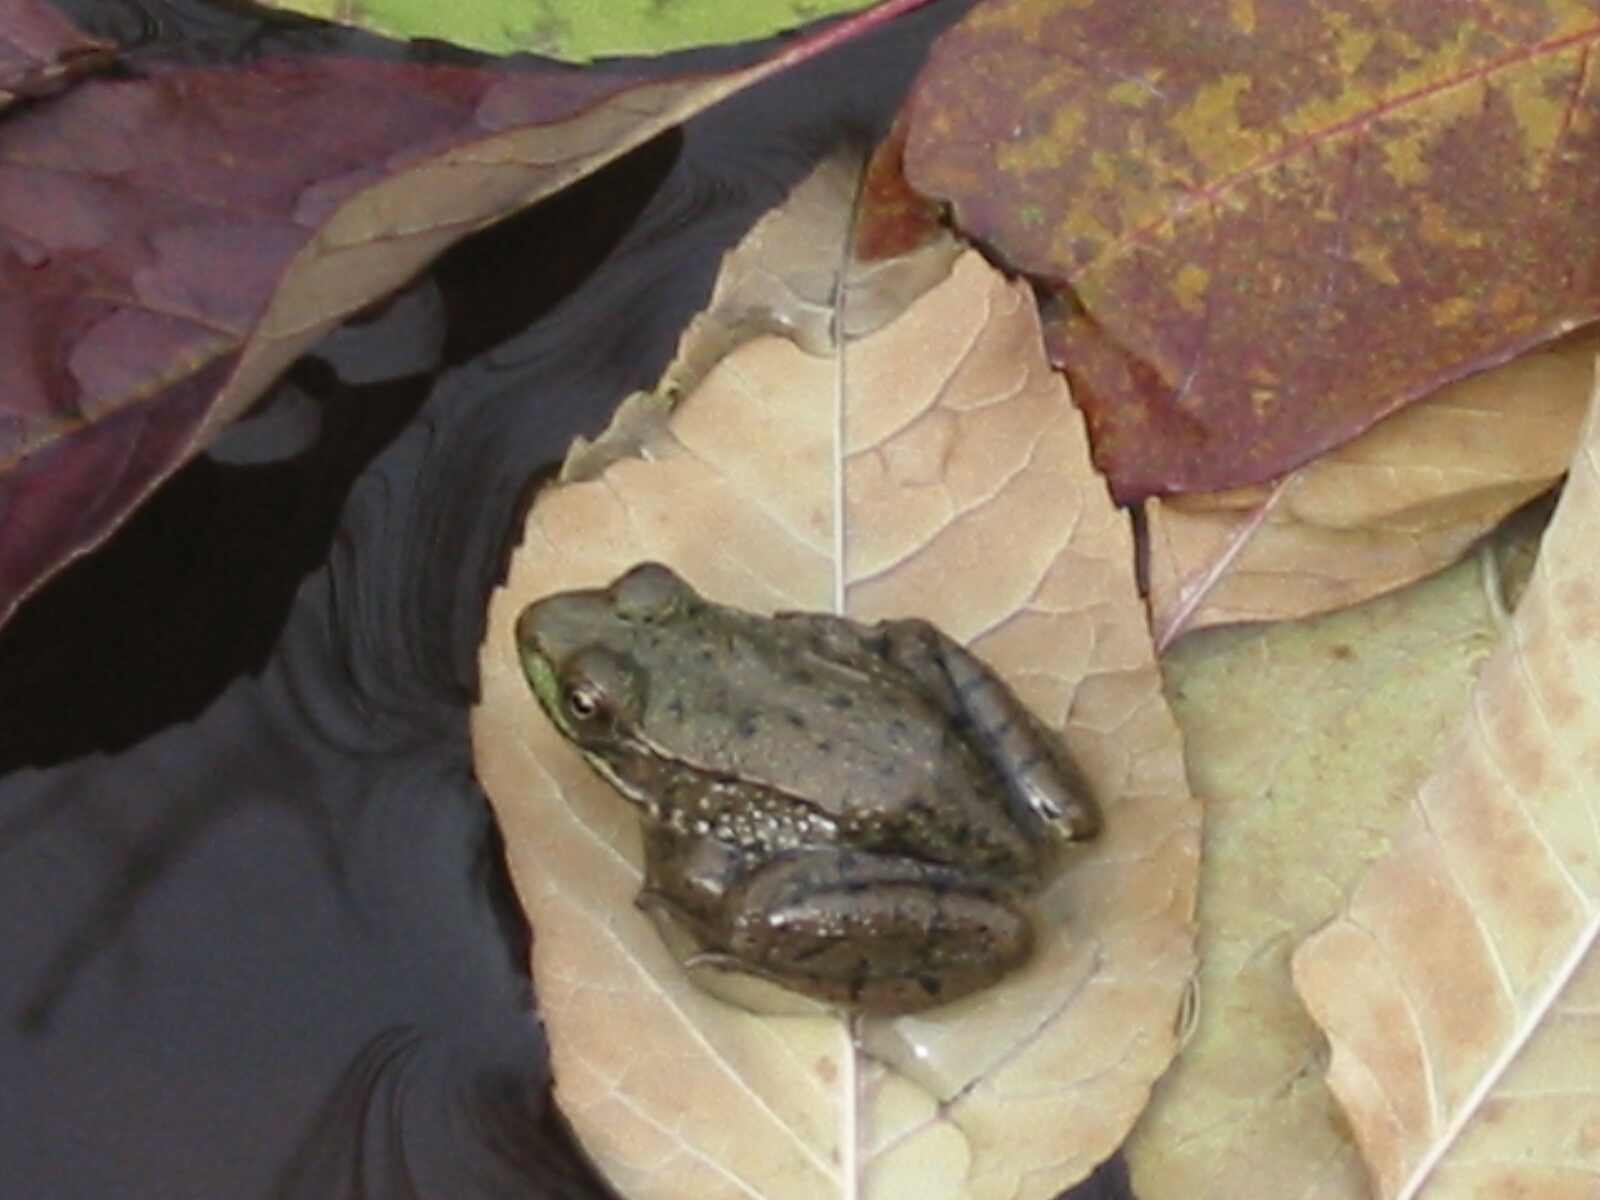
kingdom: Animalia
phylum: Chordata
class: Amphibia
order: Anura
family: Ranidae
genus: Lithobates
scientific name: Lithobates clamitans
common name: Green frog
